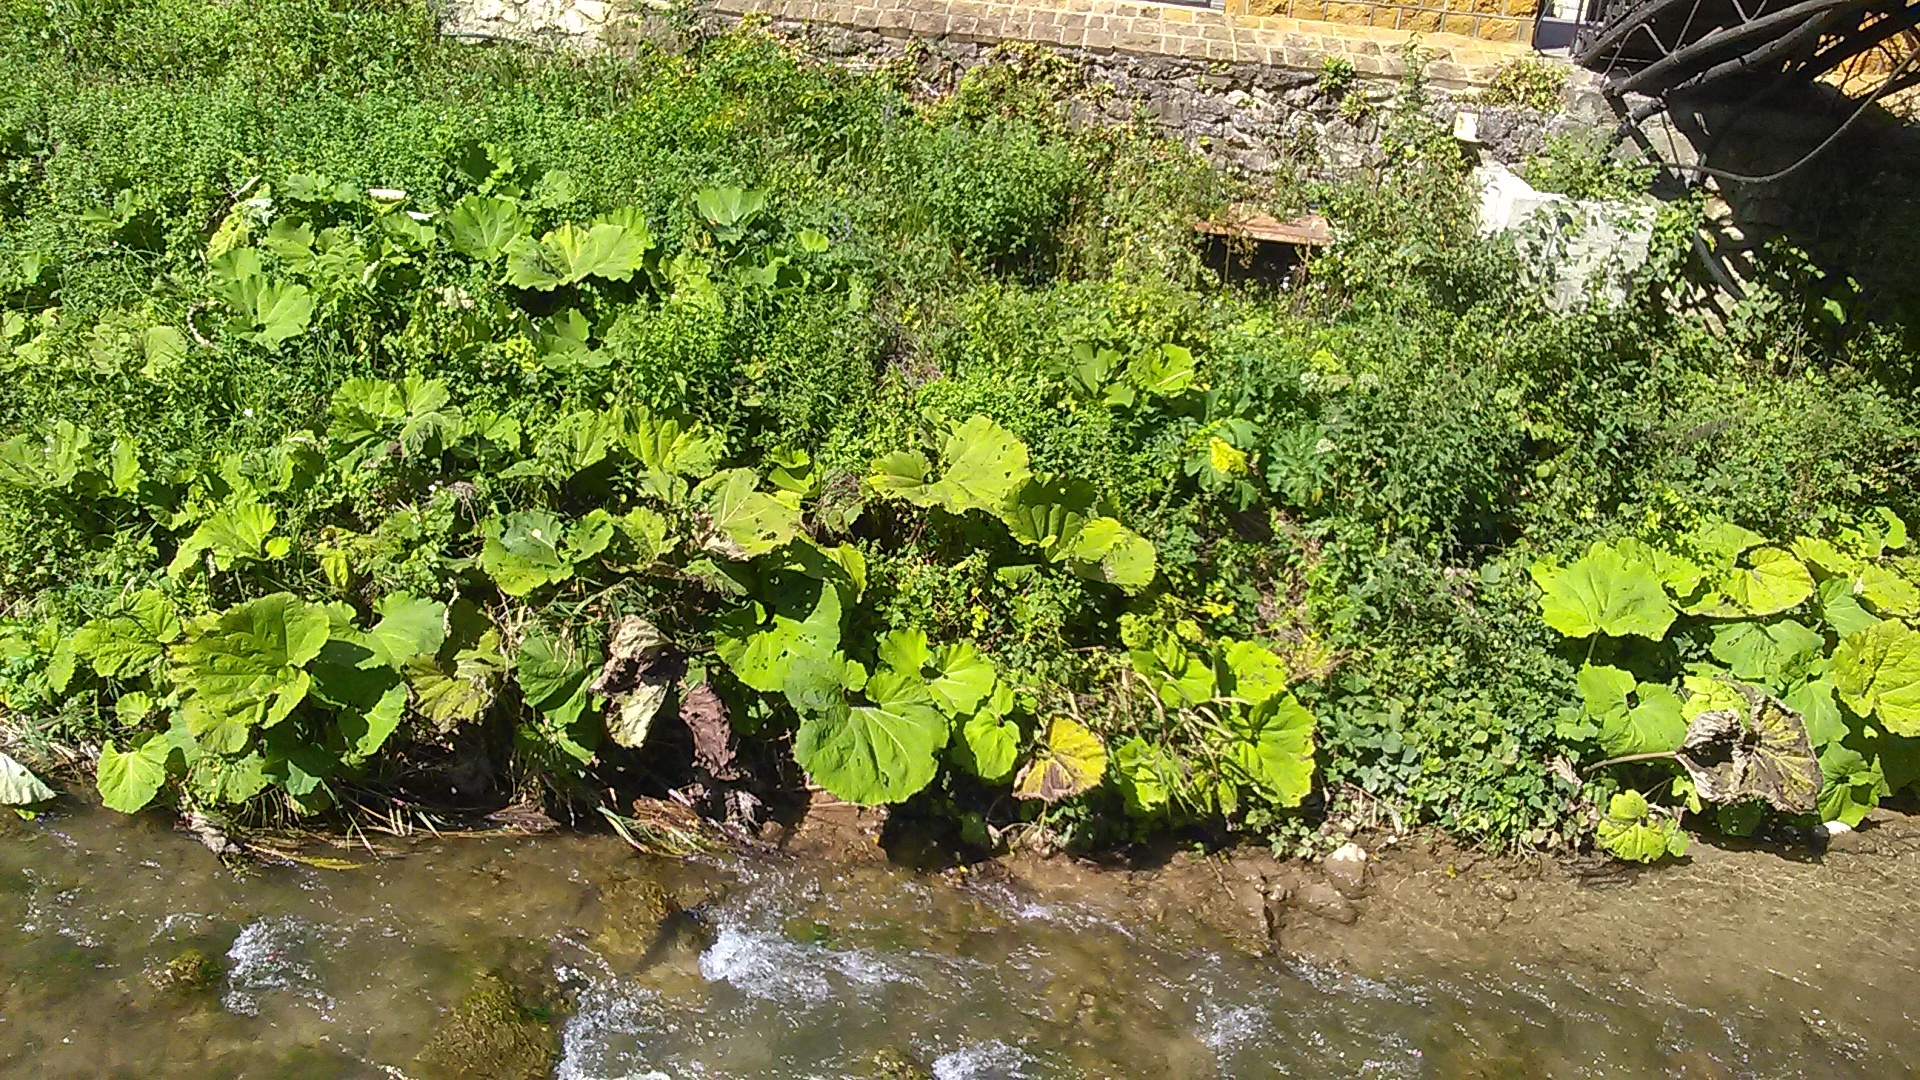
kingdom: Plantae
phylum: Tracheophyta
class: Magnoliopsida
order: Asterales
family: Asteraceae
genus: Petasites
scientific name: Petasites albus
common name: White butterbur
